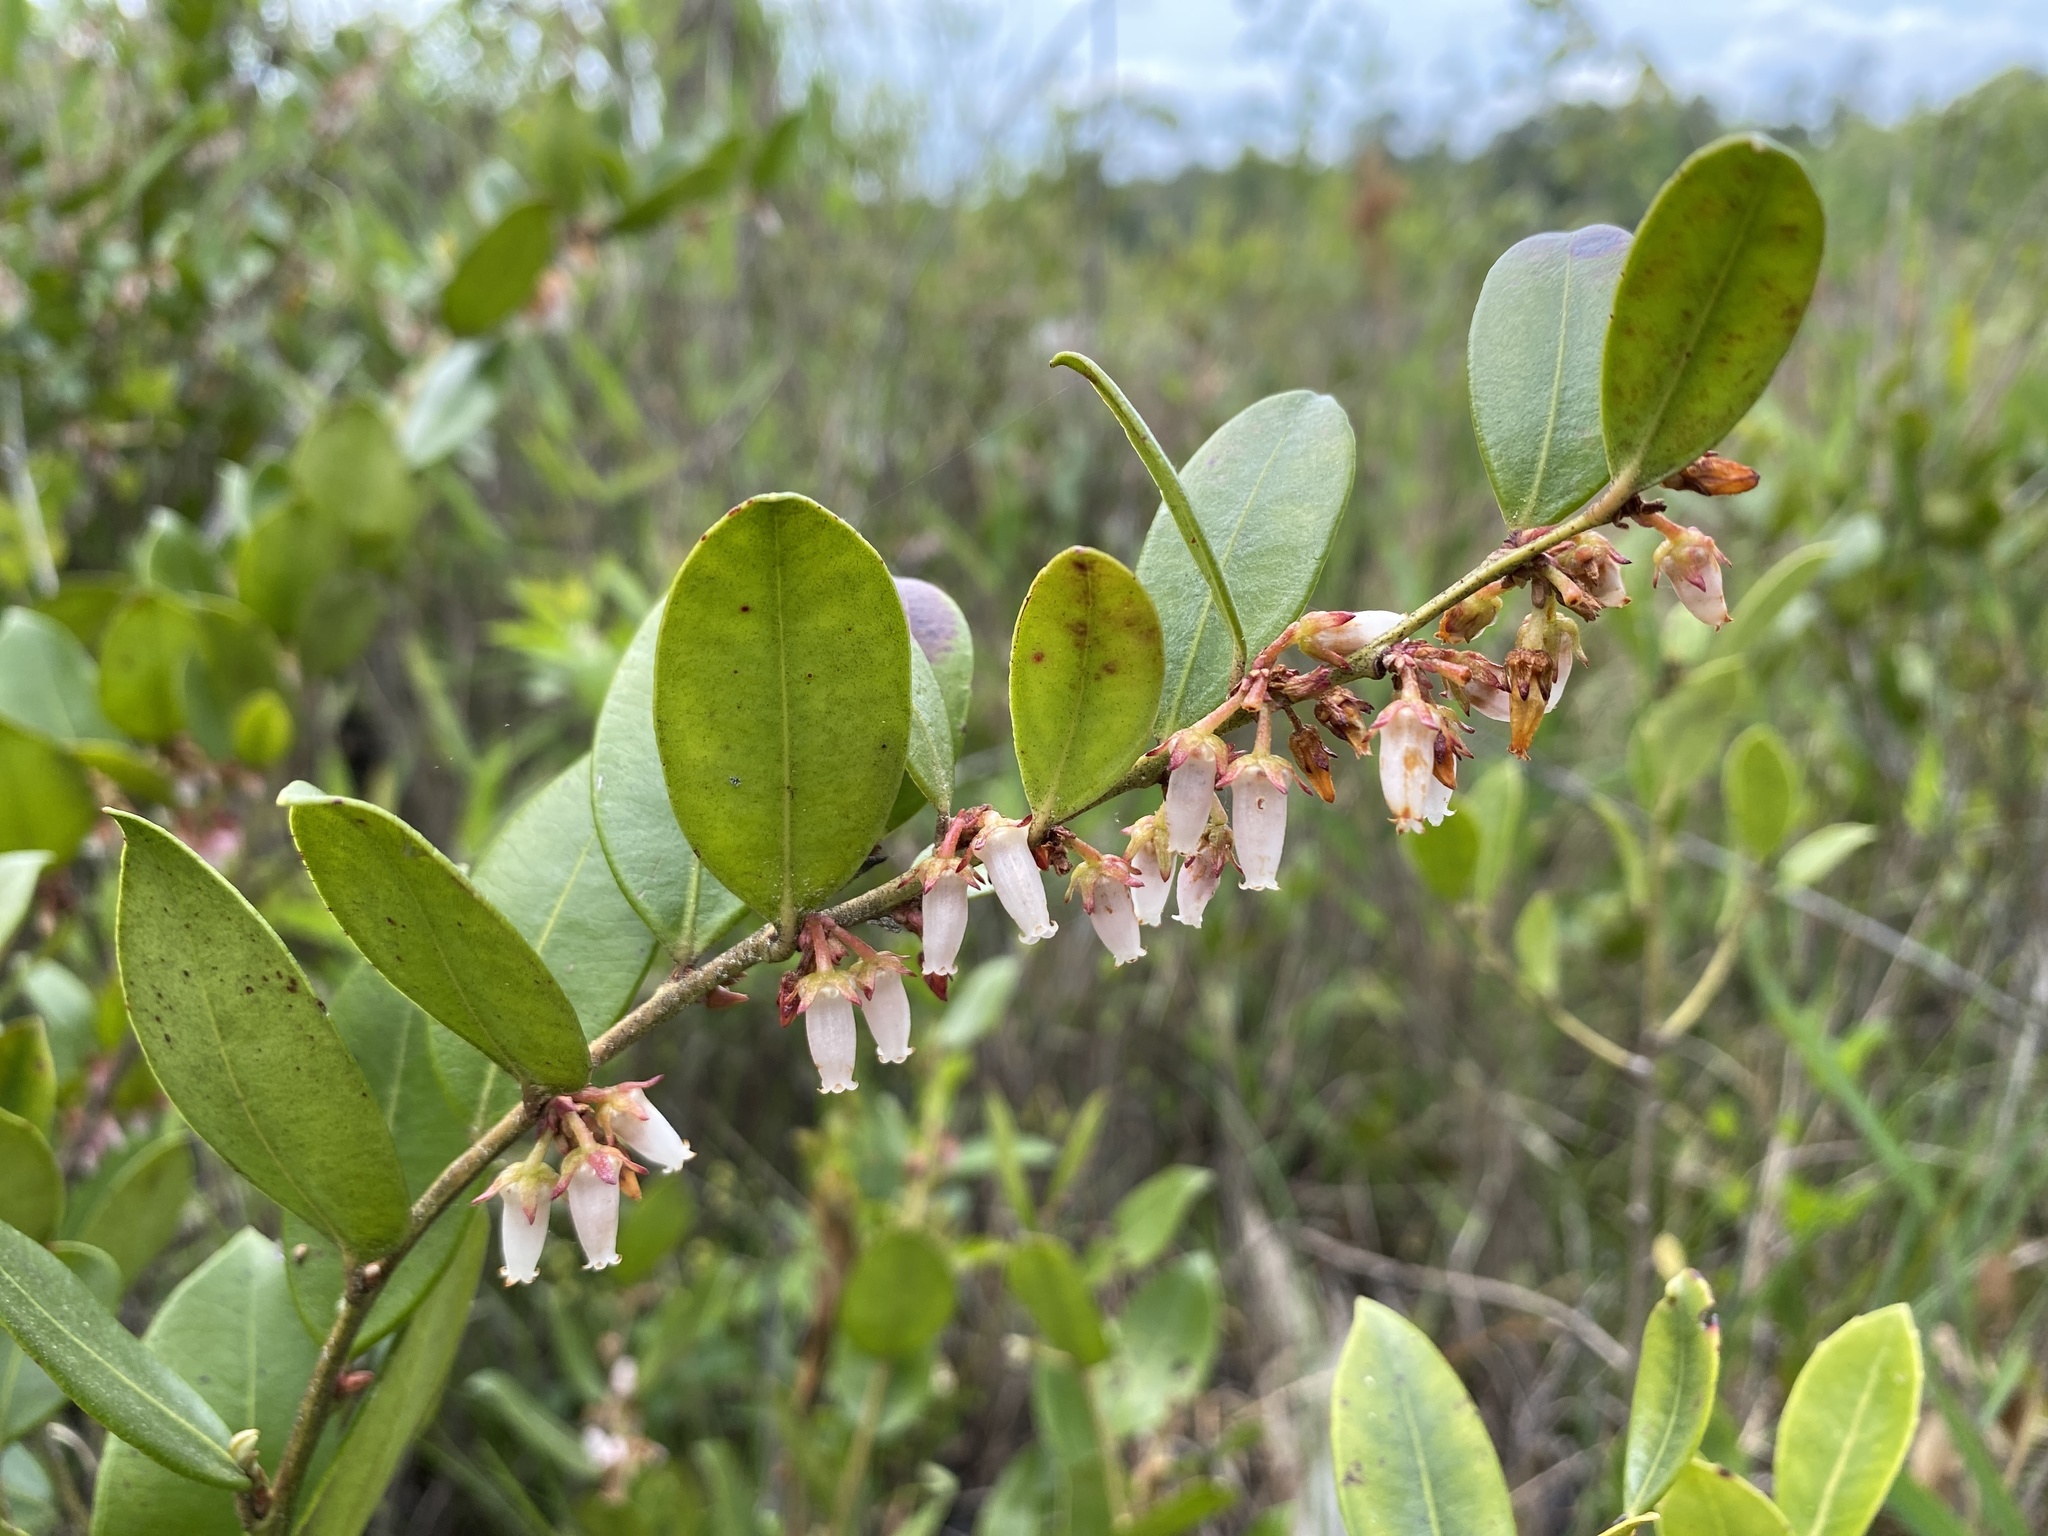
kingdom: Plantae
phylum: Tracheophyta
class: Magnoliopsida
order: Ericales
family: Ericaceae
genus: Lyonia
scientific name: Lyonia lucida
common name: Fetterbush
